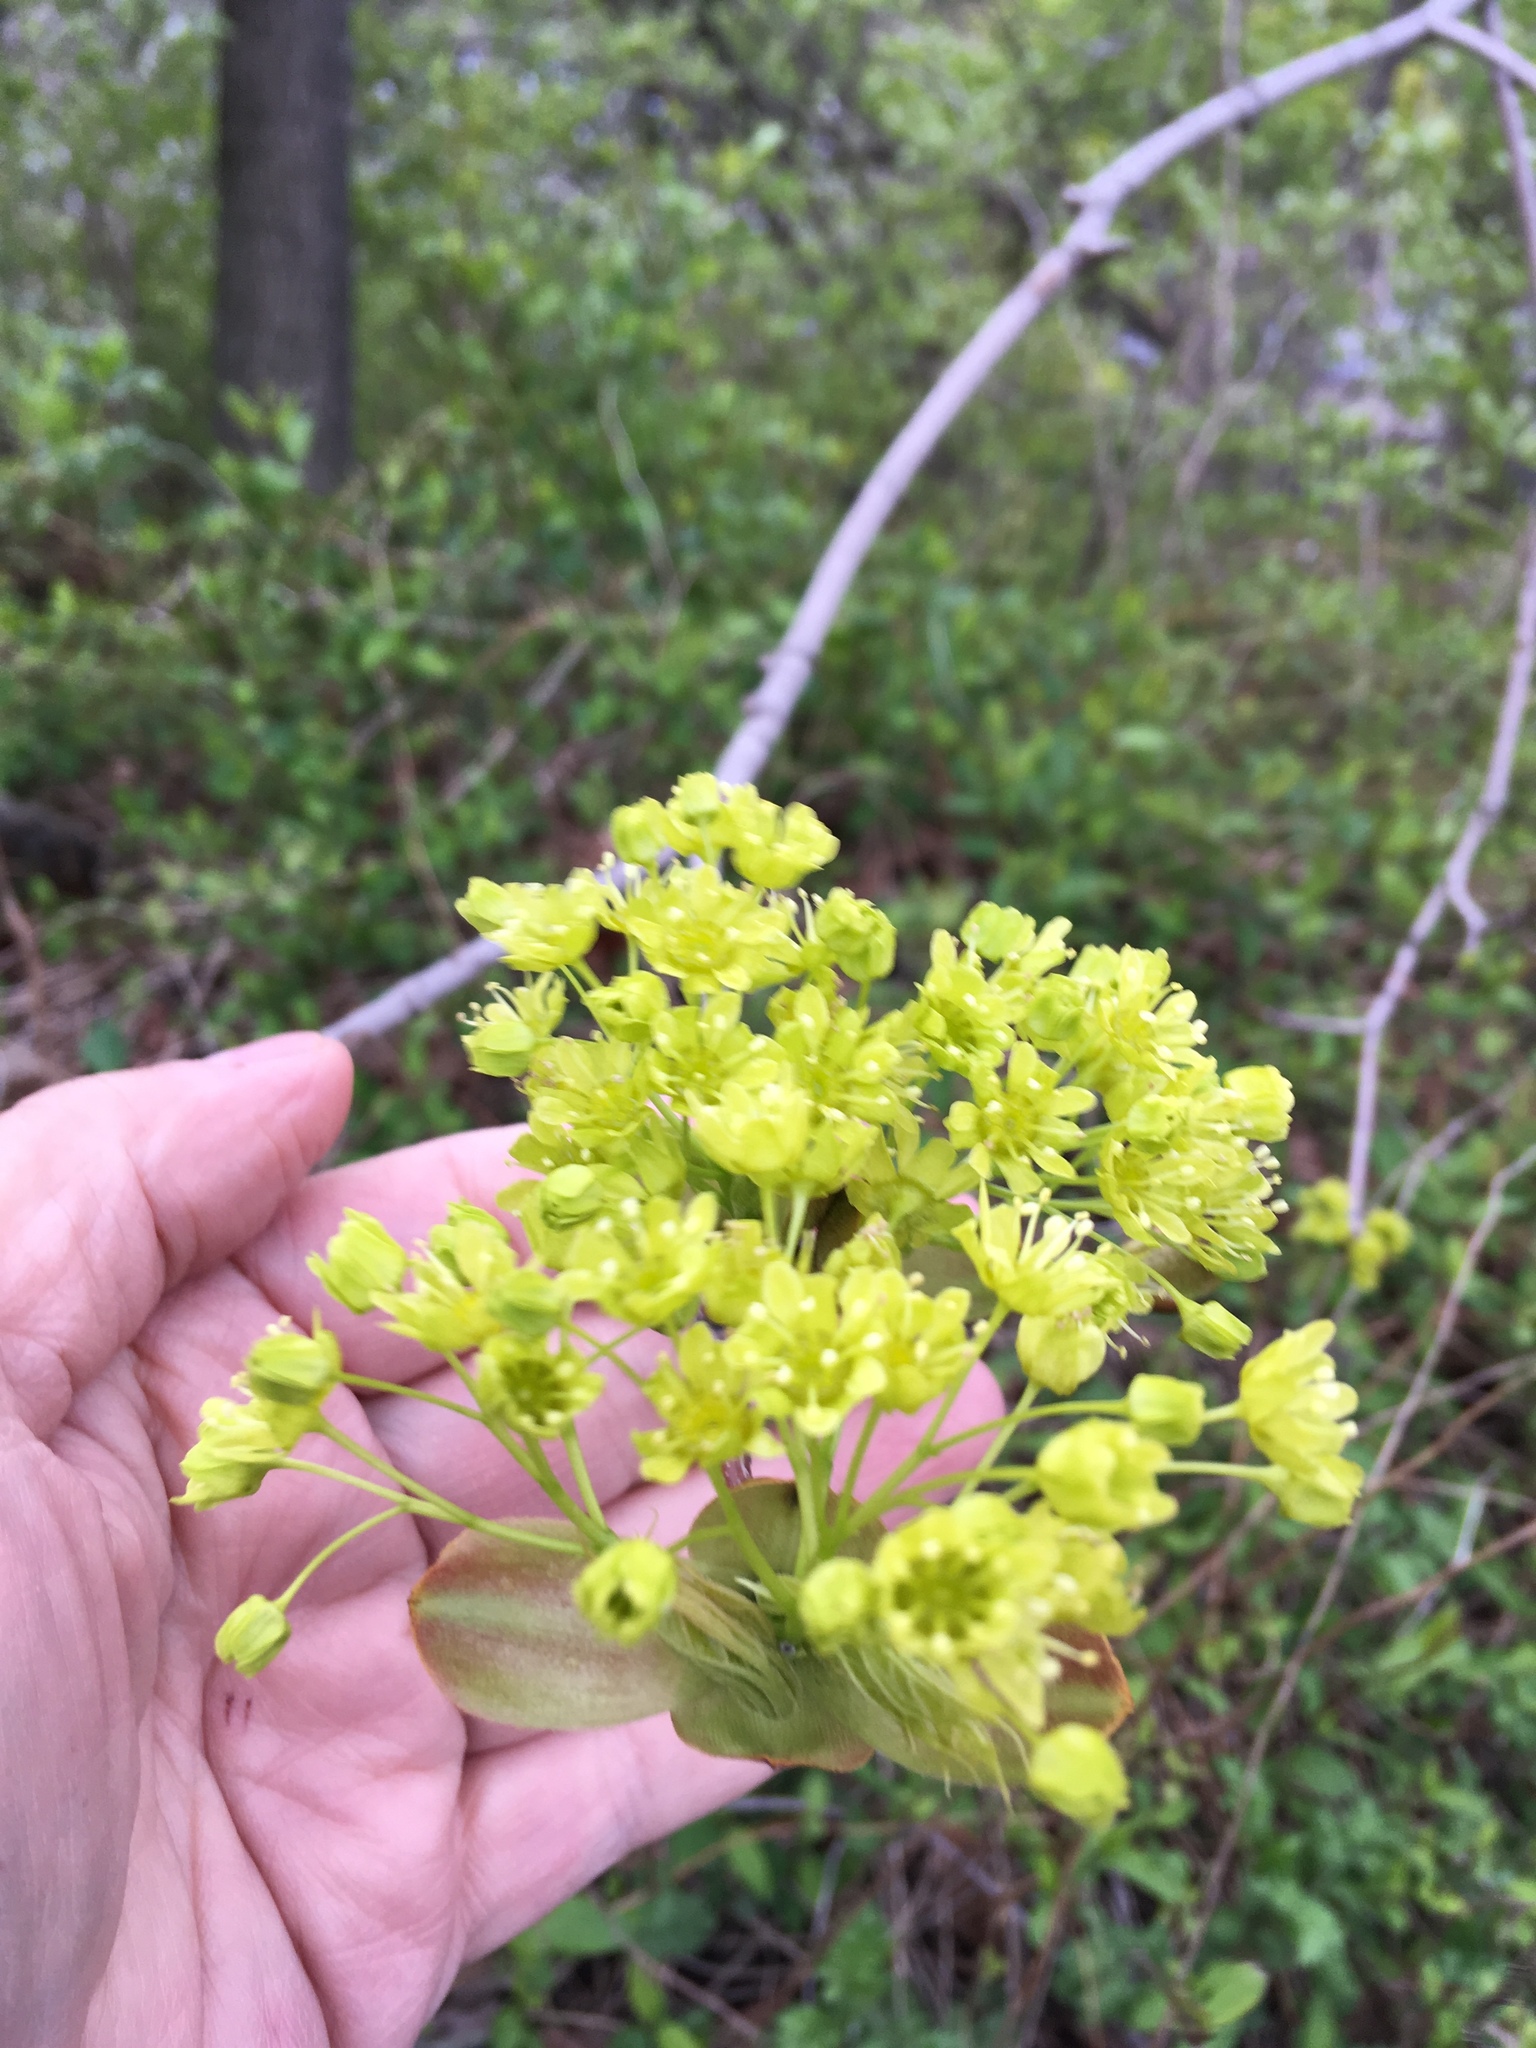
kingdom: Plantae
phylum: Tracheophyta
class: Magnoliopsida
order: Sapindales
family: Sapindaceae
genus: Acer
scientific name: Acer platanoides
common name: Norway maple
